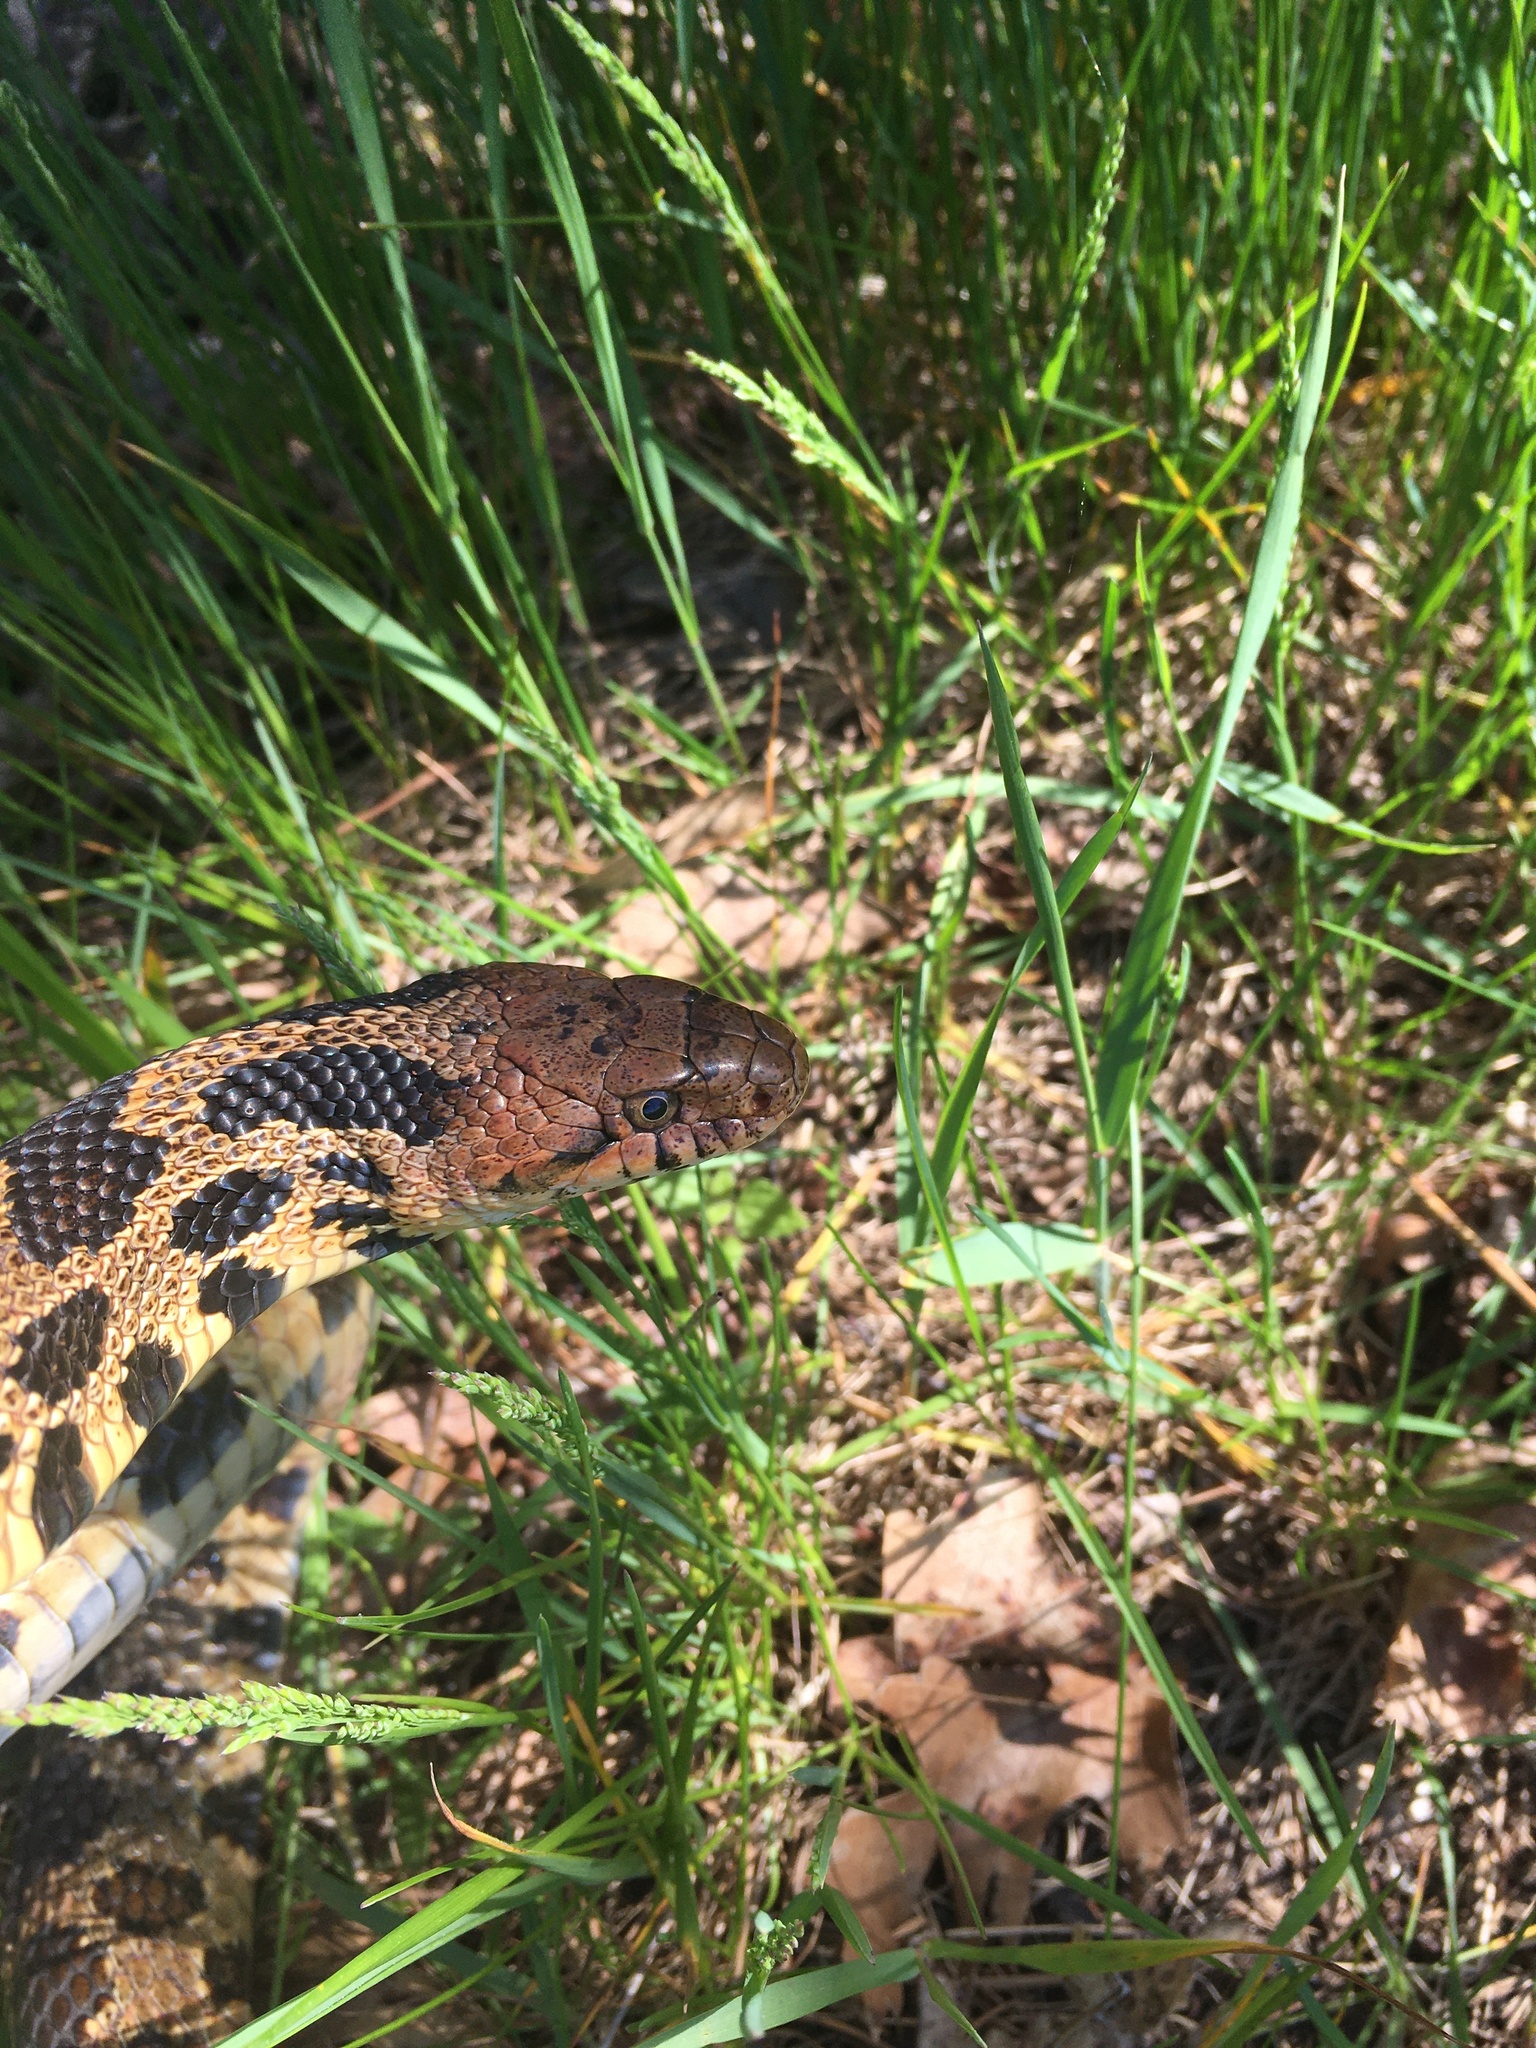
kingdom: Animalia
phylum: Chordata
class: Squamata
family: Colubridae
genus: Pantherophis
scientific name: Pantherophis vulpinus
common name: Eastern fox snake
